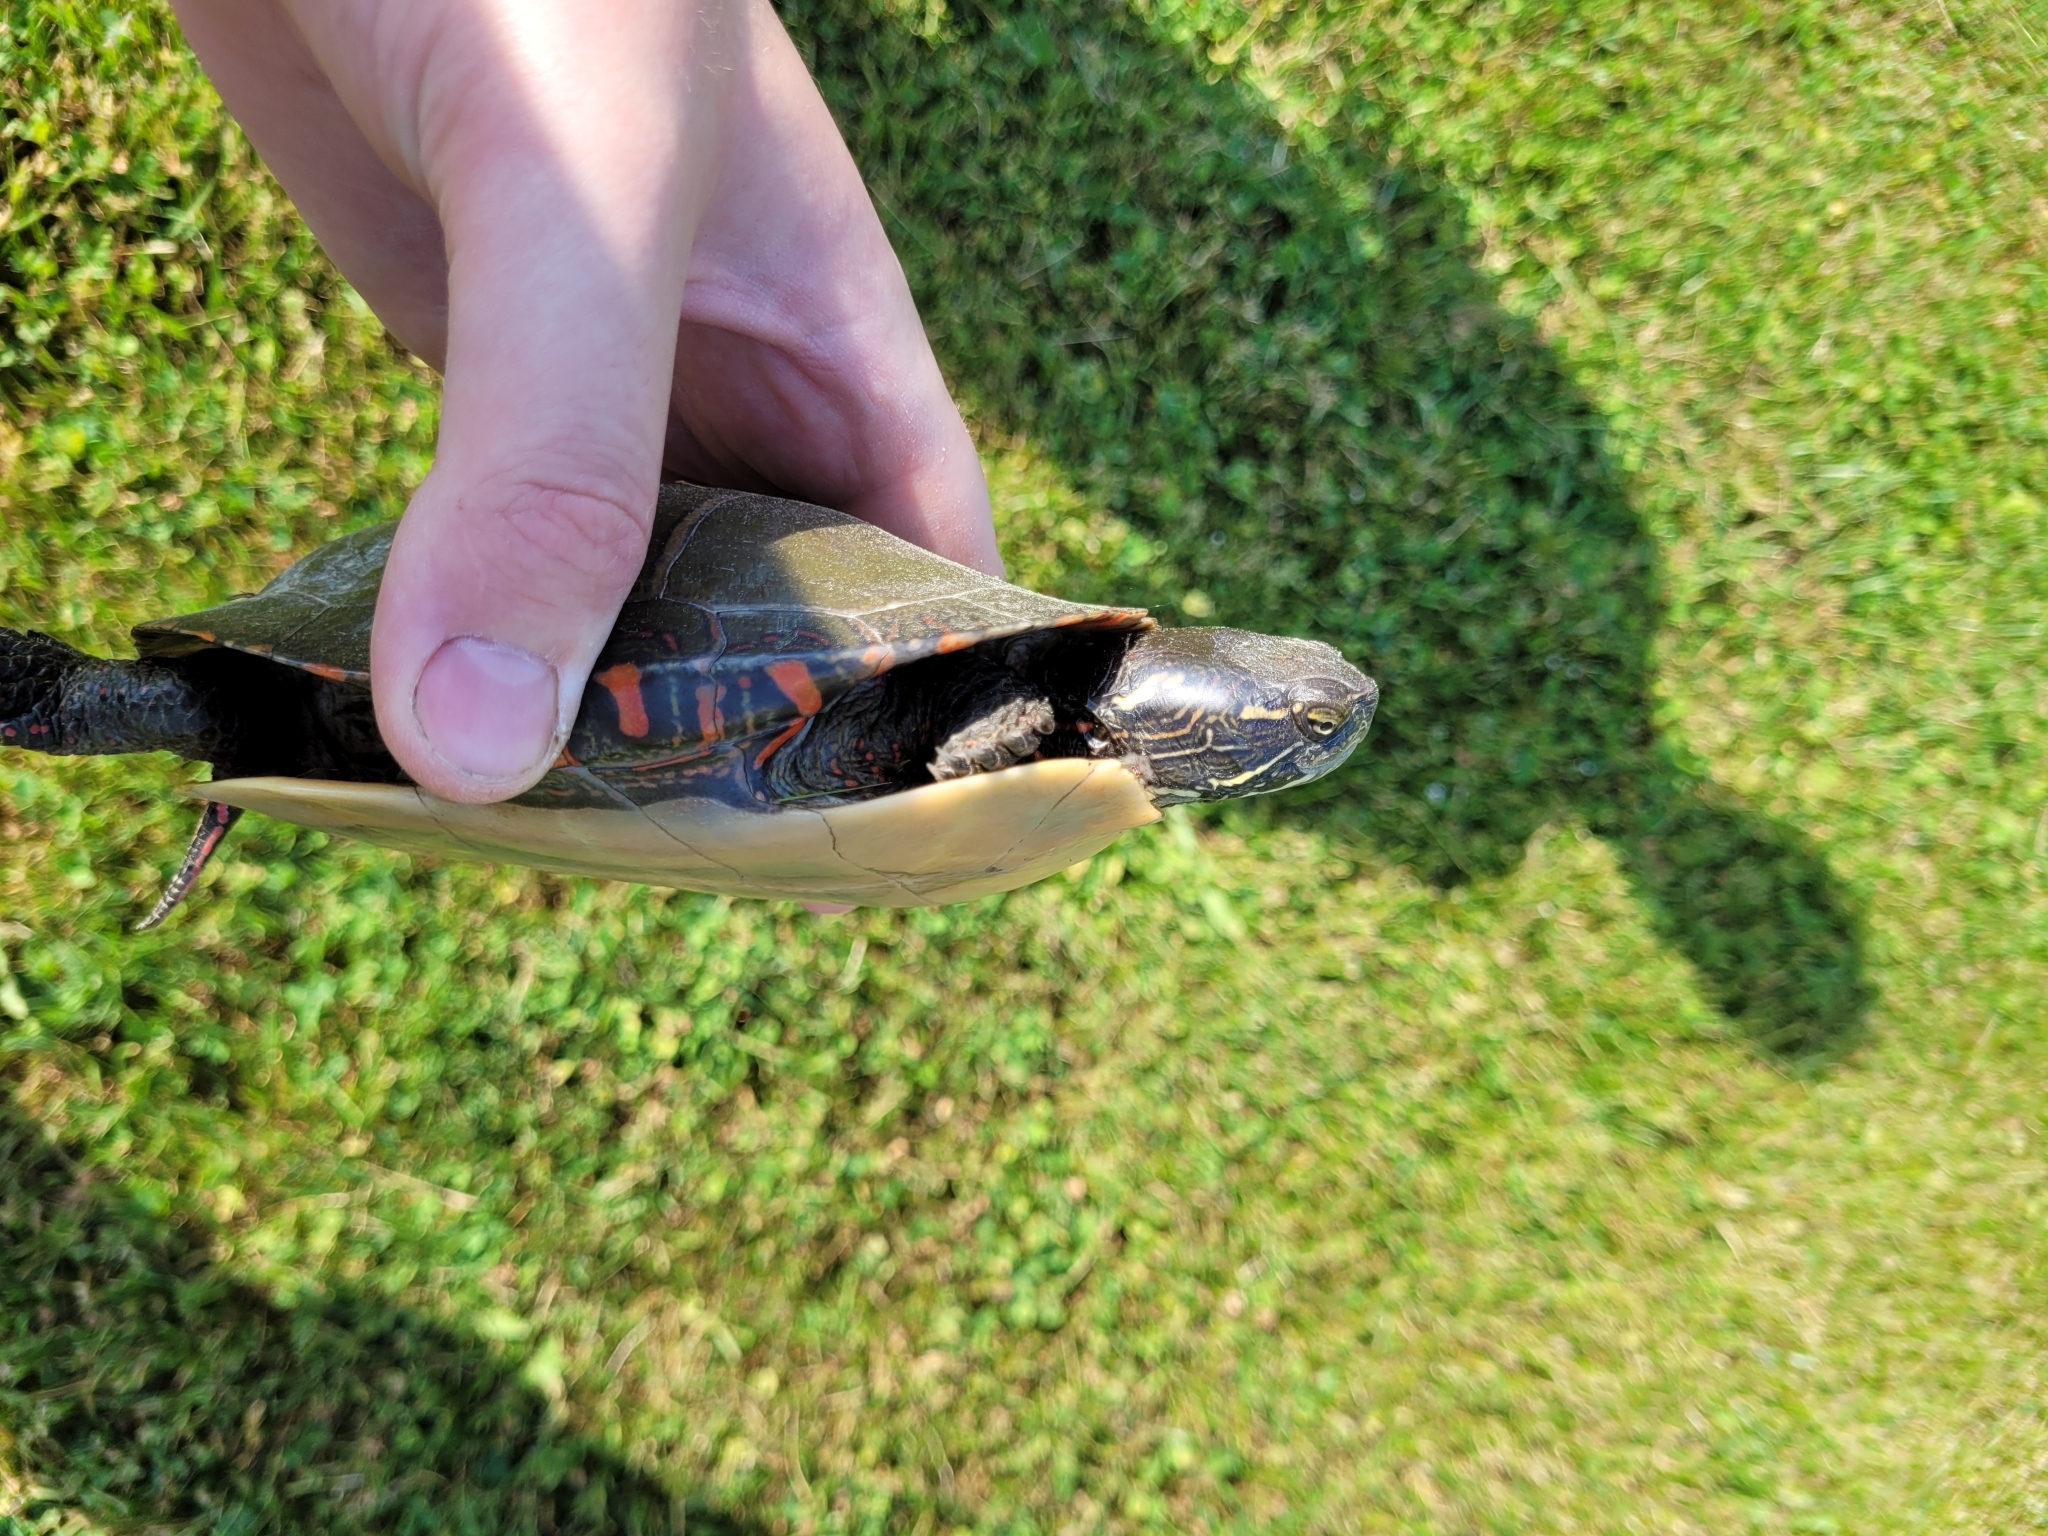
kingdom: Animalia
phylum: Chordata
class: Testudines
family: Emydidae
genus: Chrysemys
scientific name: Chrysemys picta
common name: Painted turtle
